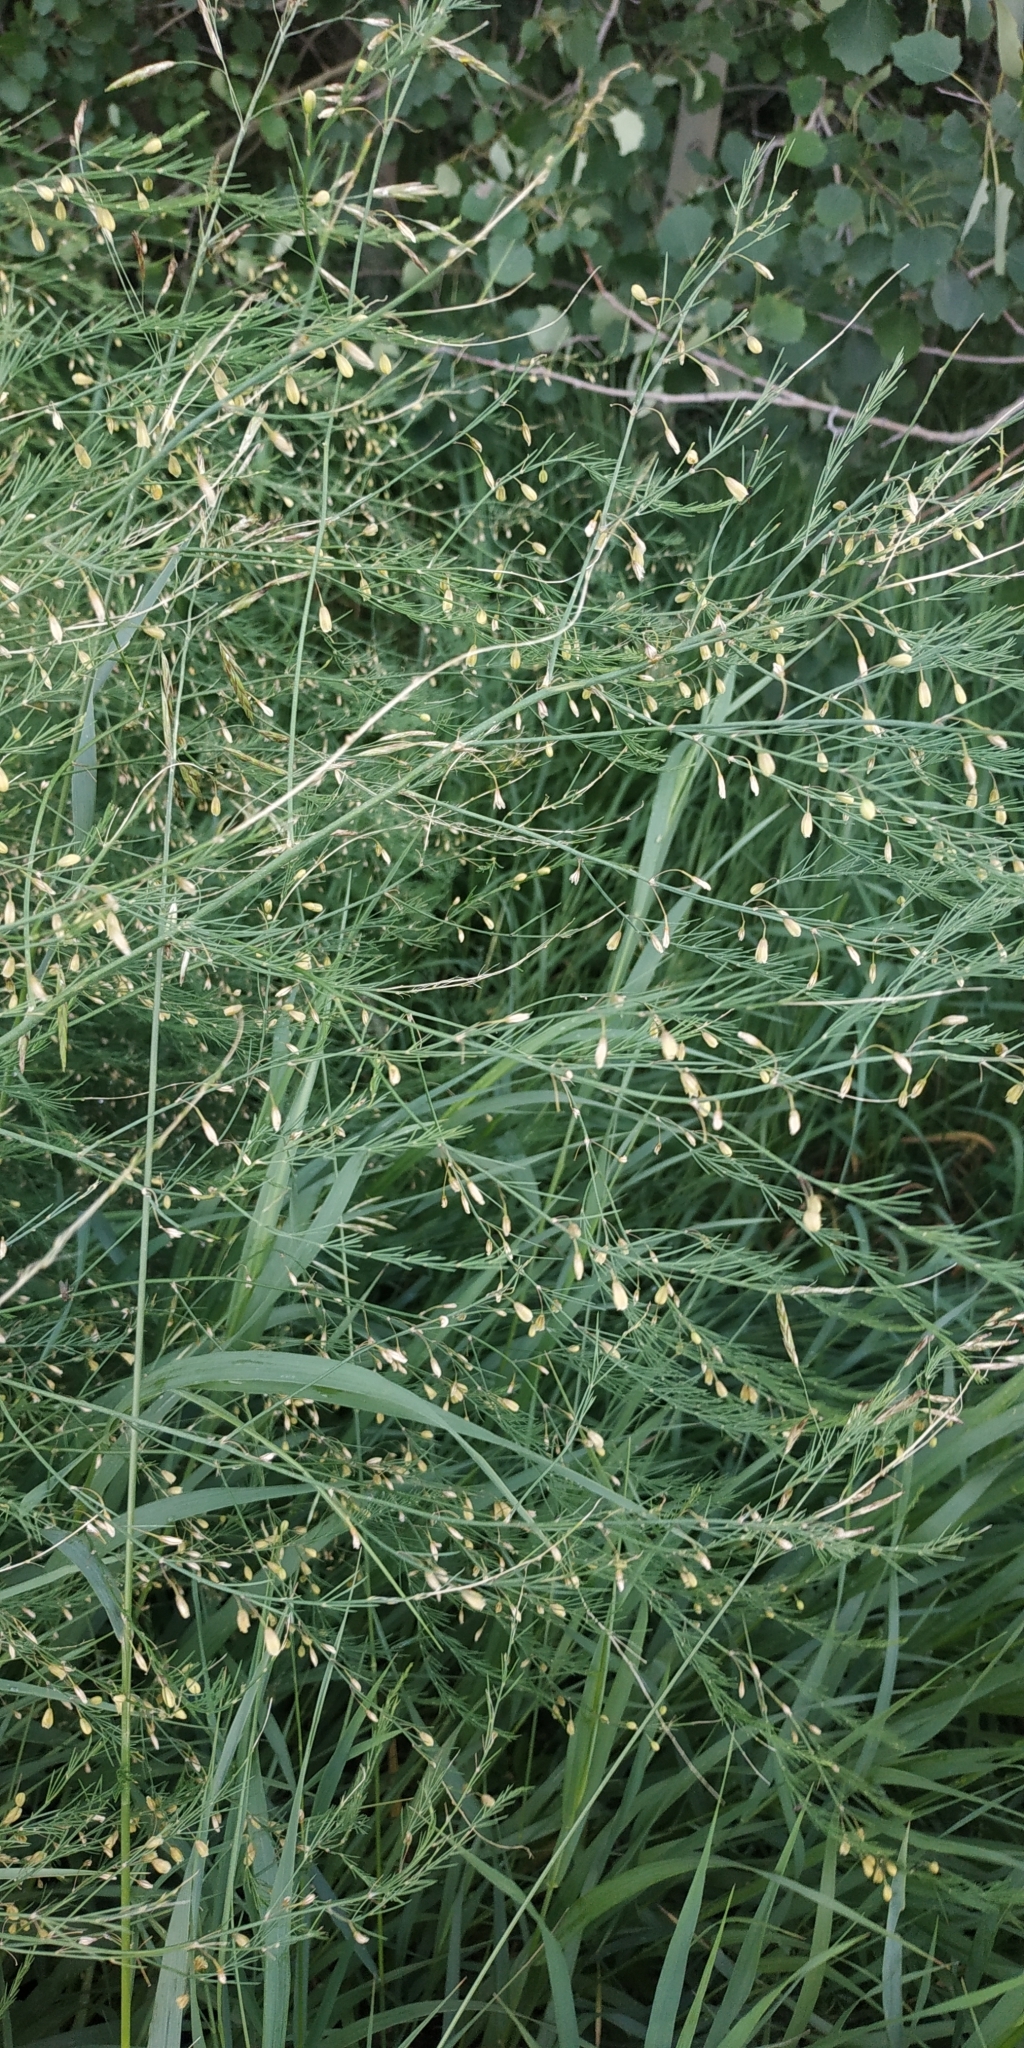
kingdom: Plantae
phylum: Tracheophyta
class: Liliopsida
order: Asparagales
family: Asparagaceae
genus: Asparagus
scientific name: Asparagus officinalis
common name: Garden asparagus
